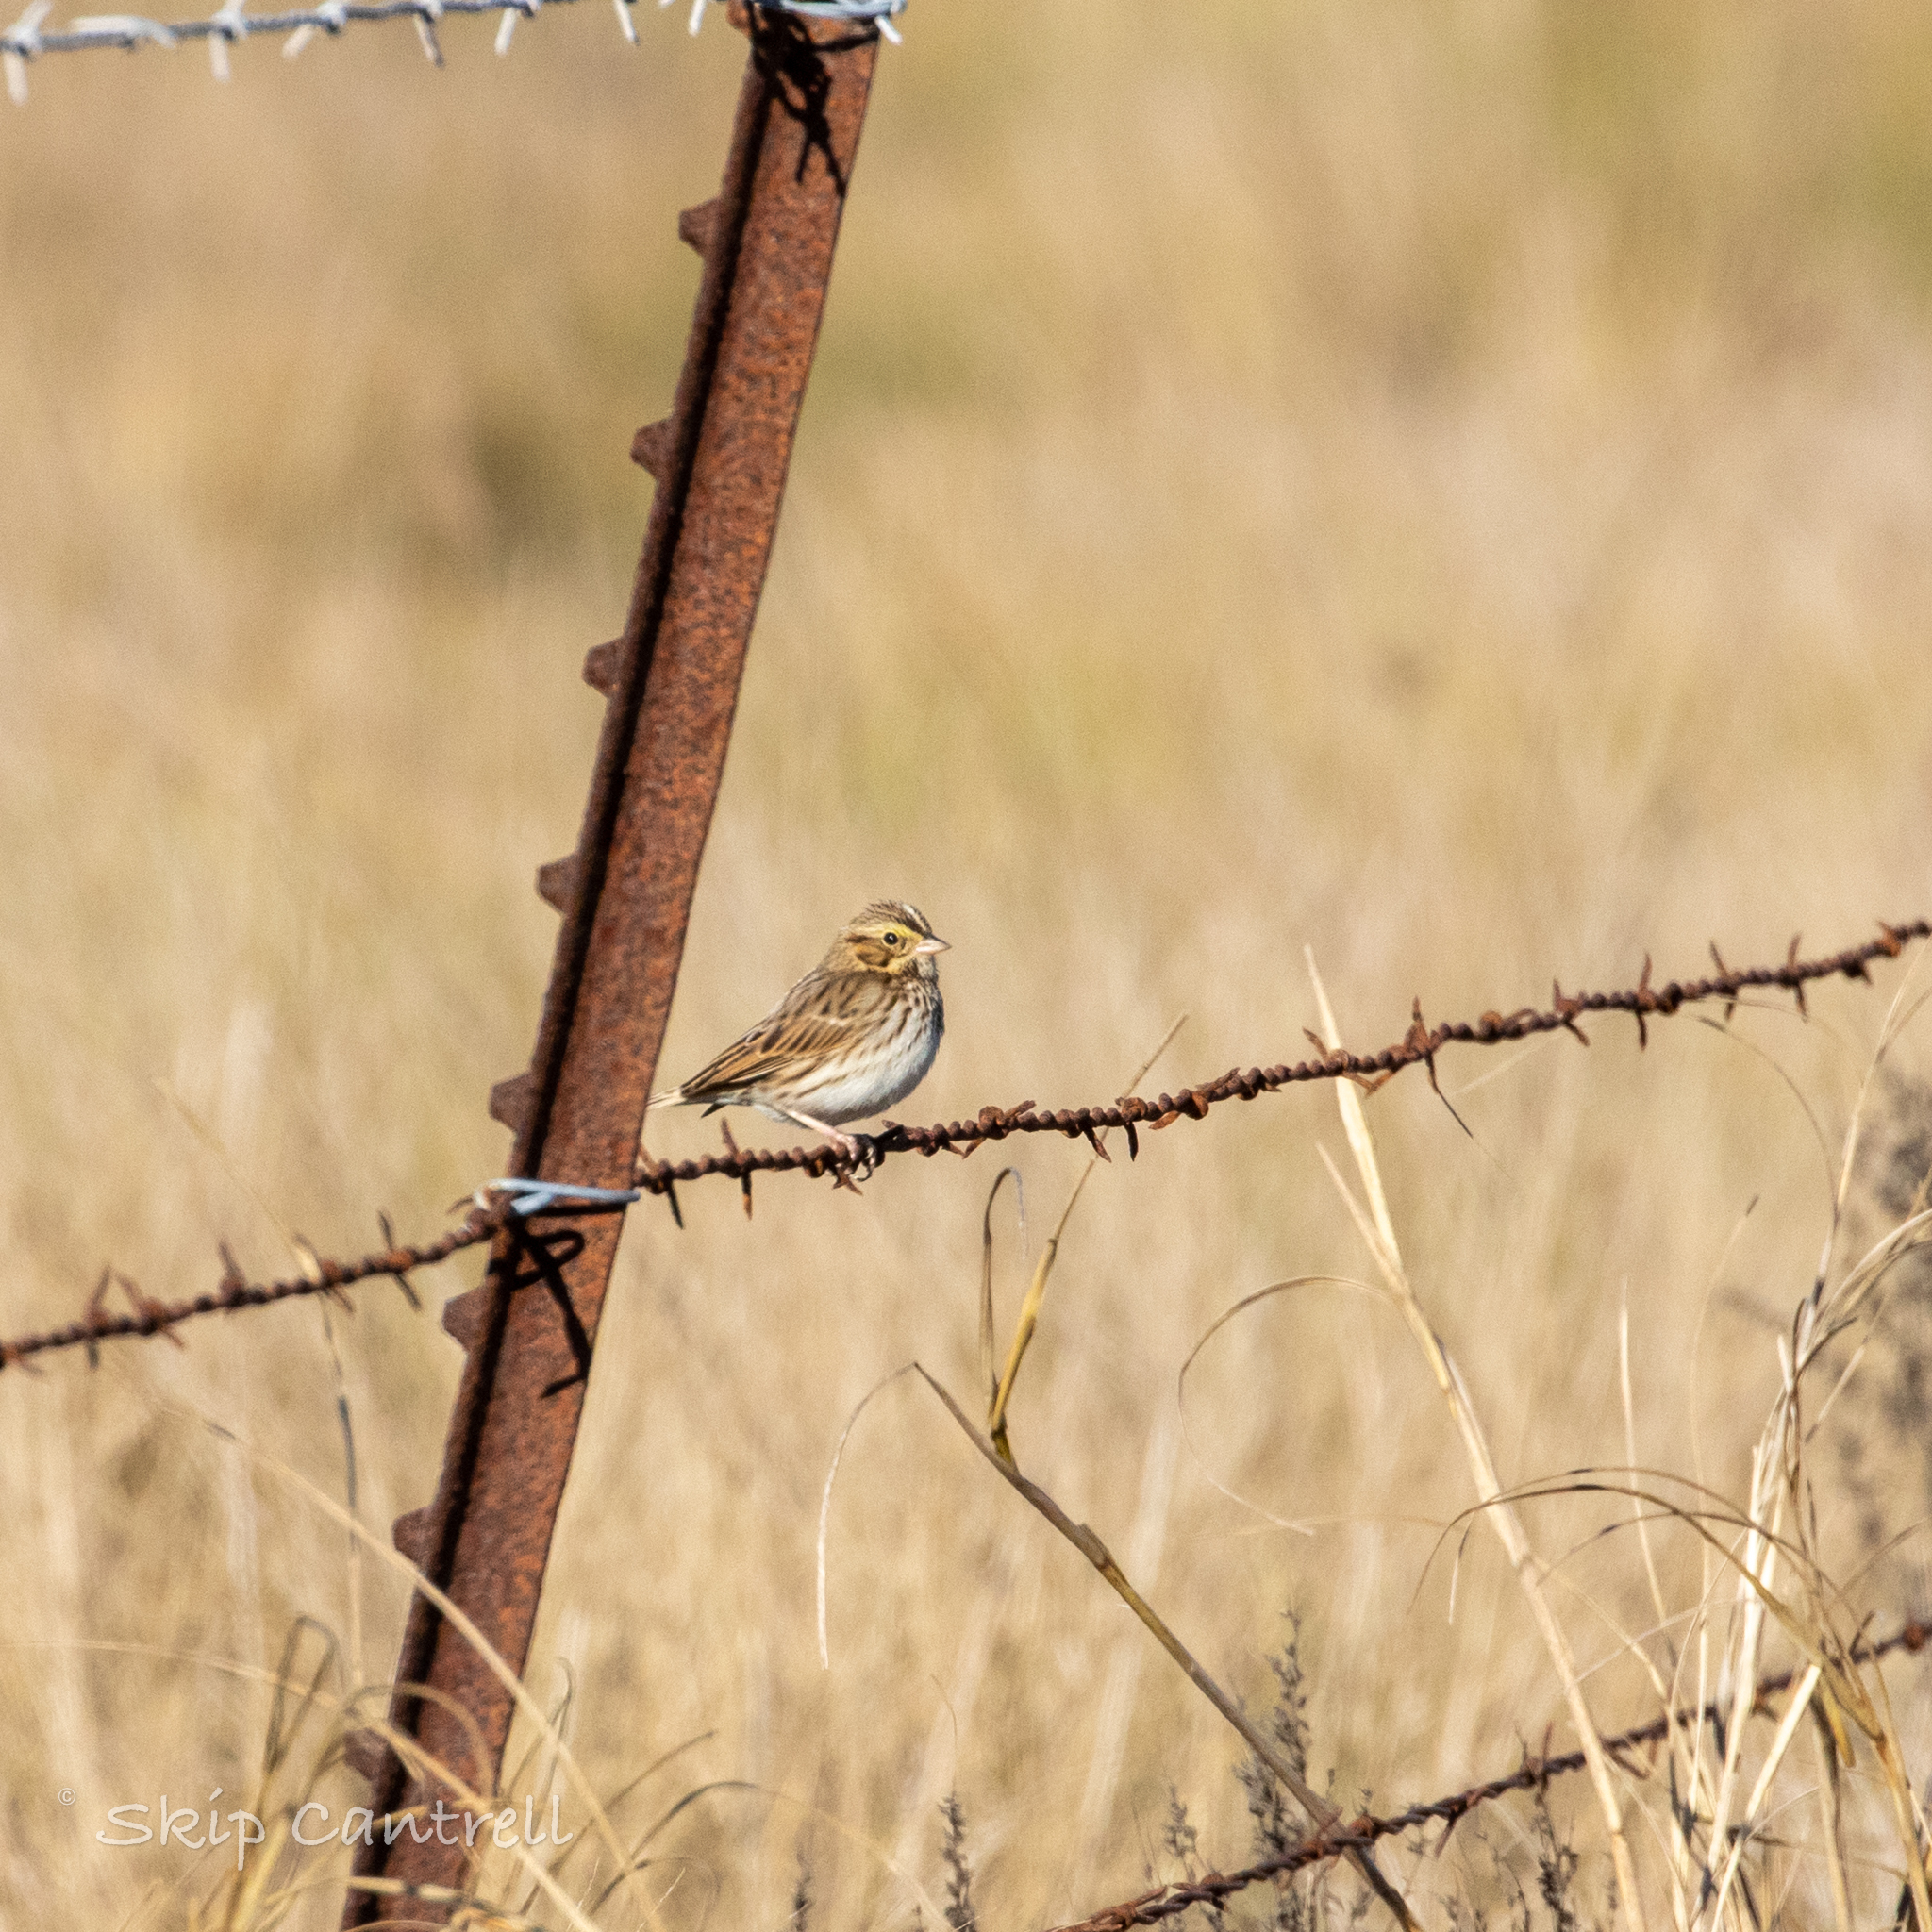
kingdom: Animalia
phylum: Chordata
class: Aves
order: Passeriformes
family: Passerellidae
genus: Passerculus
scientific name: Passerculus sandwichensis
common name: Savannah sparrow
